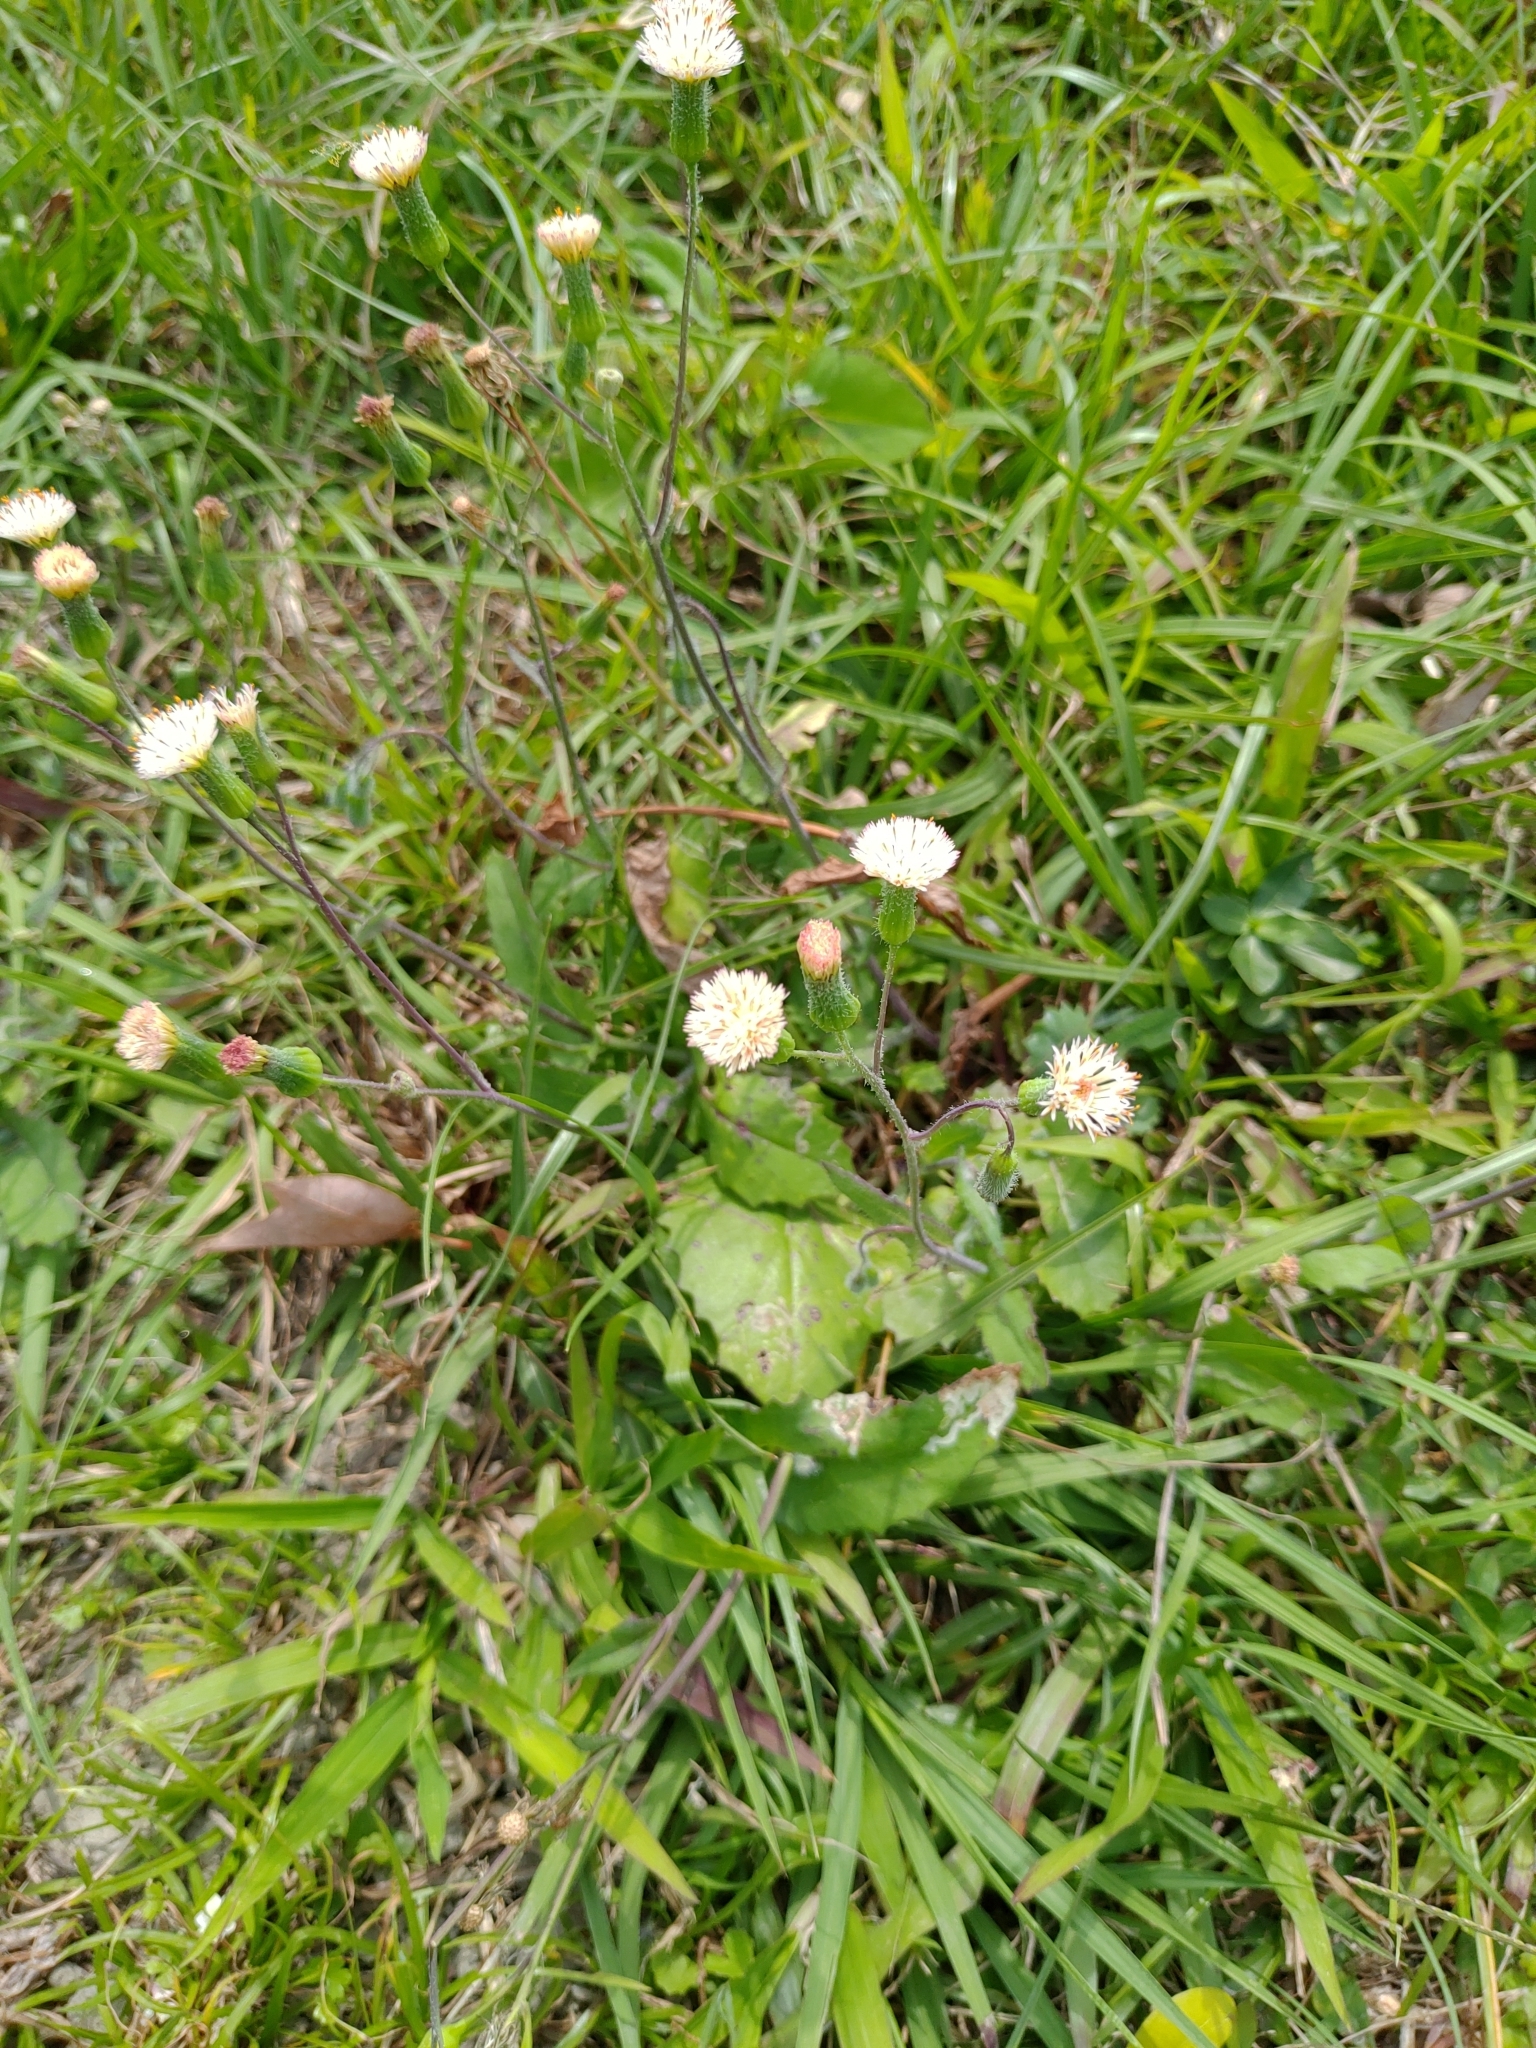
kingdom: Plantae
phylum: Tracheophyta
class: Magnoliopsida
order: Asterales
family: Asteraceae
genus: Emilia
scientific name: Emilia praetermissa
